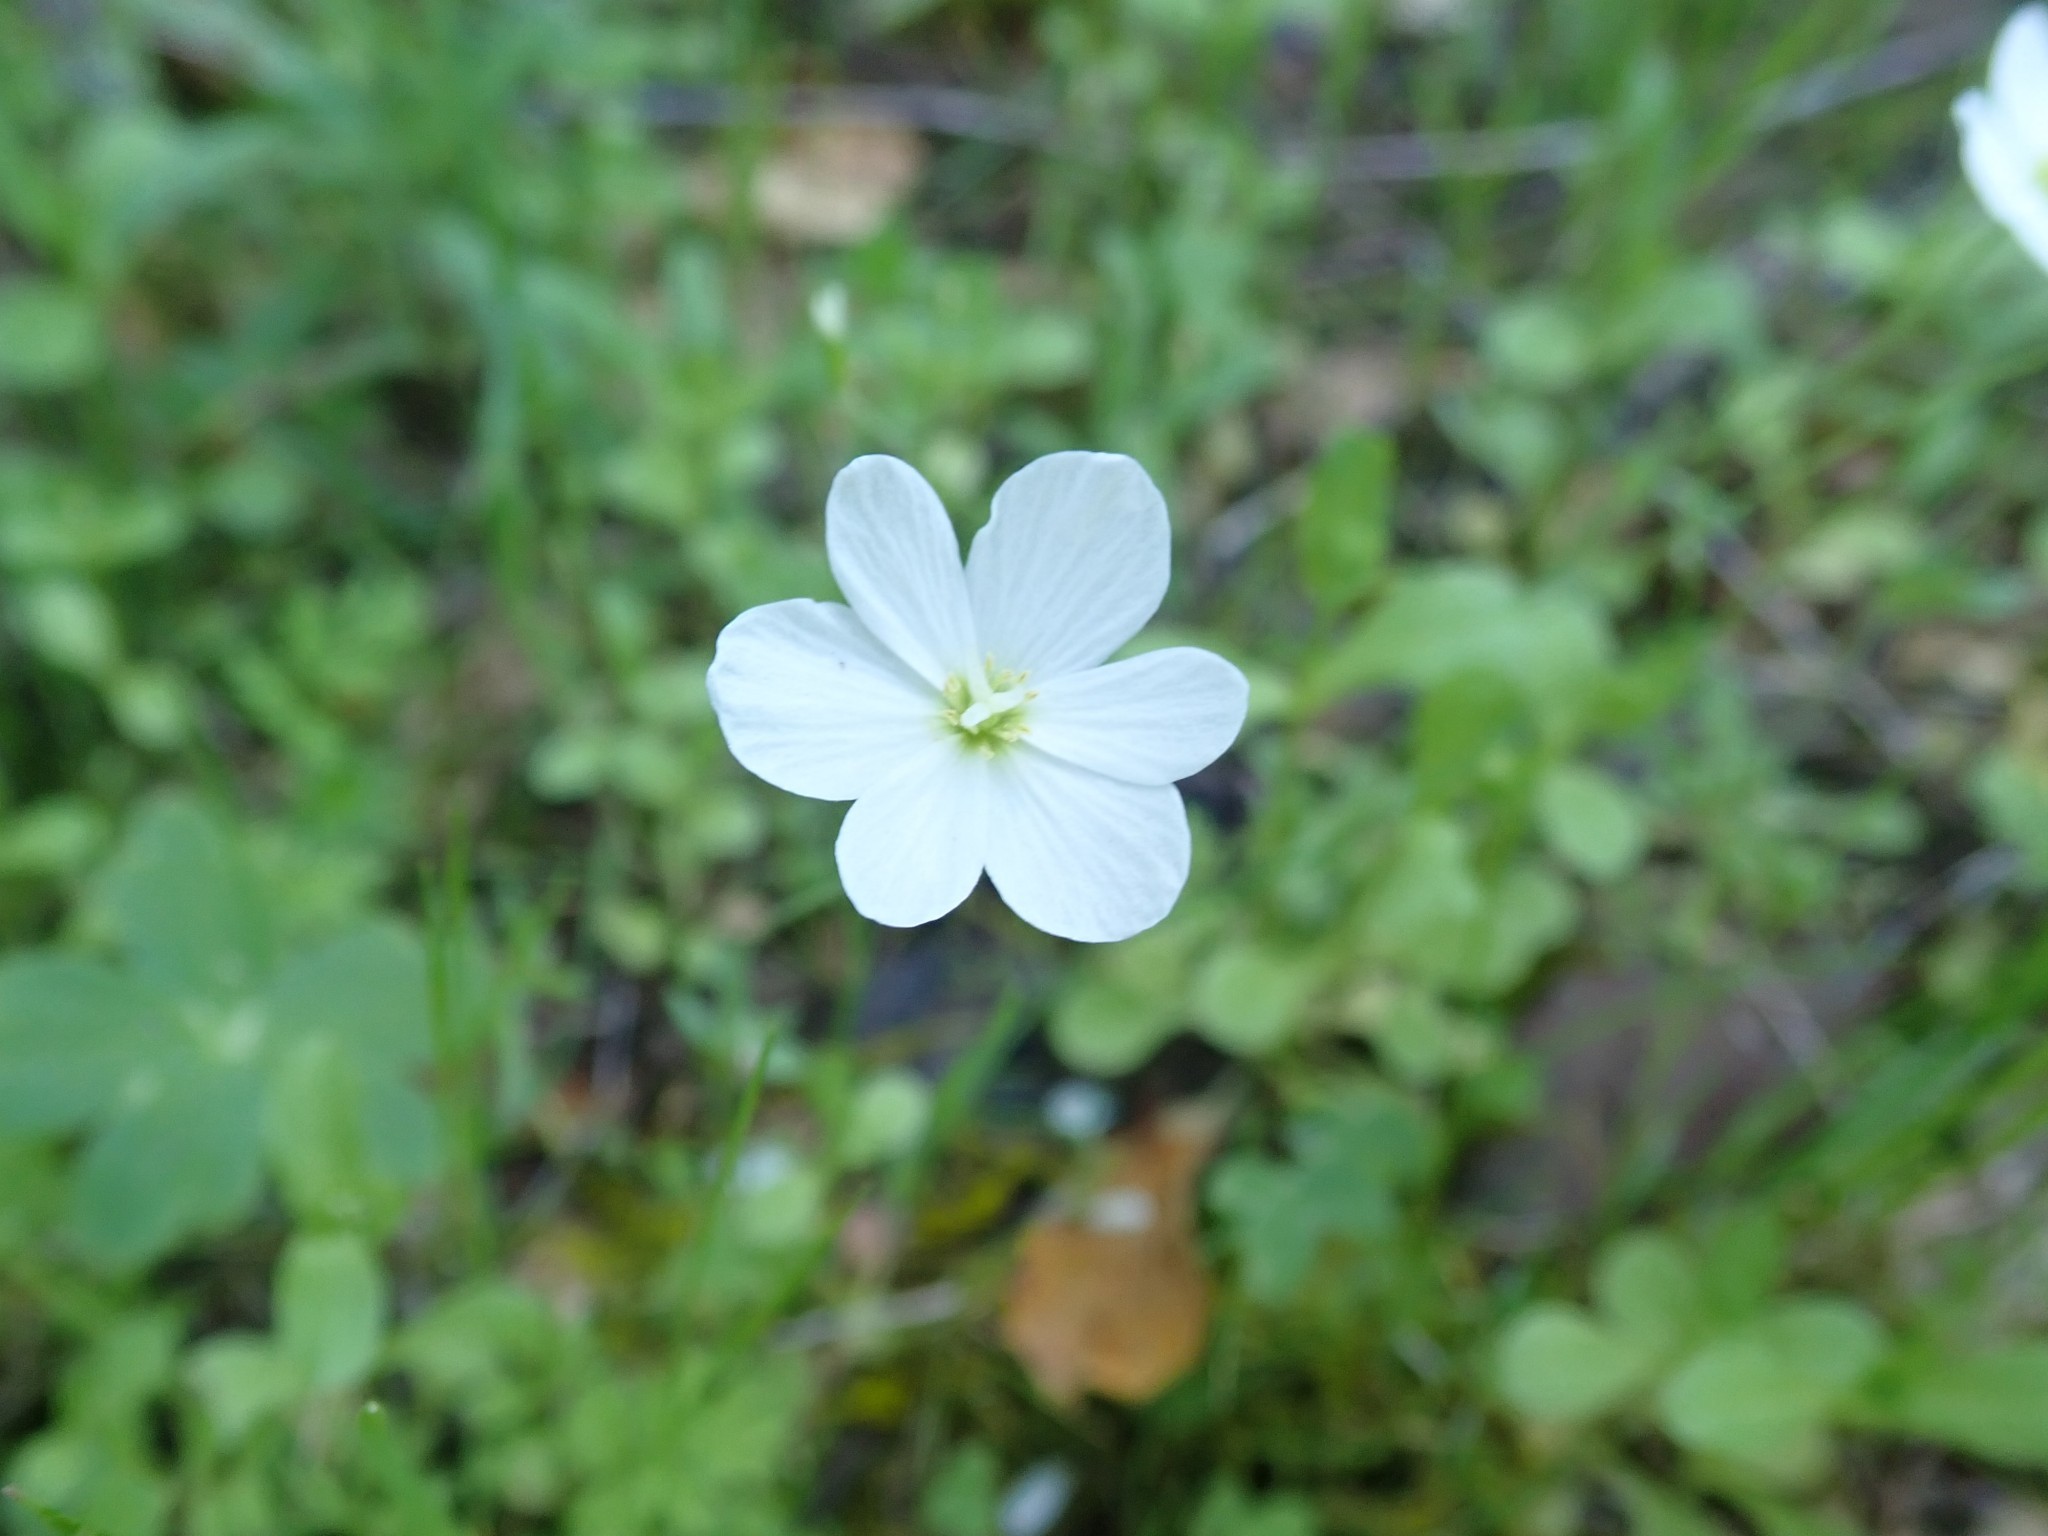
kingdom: Plantae
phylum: Tracheophyta
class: Magnoliopsida
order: Ranunculales
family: Papaveraceae
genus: Meconella
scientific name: Meconella californica
